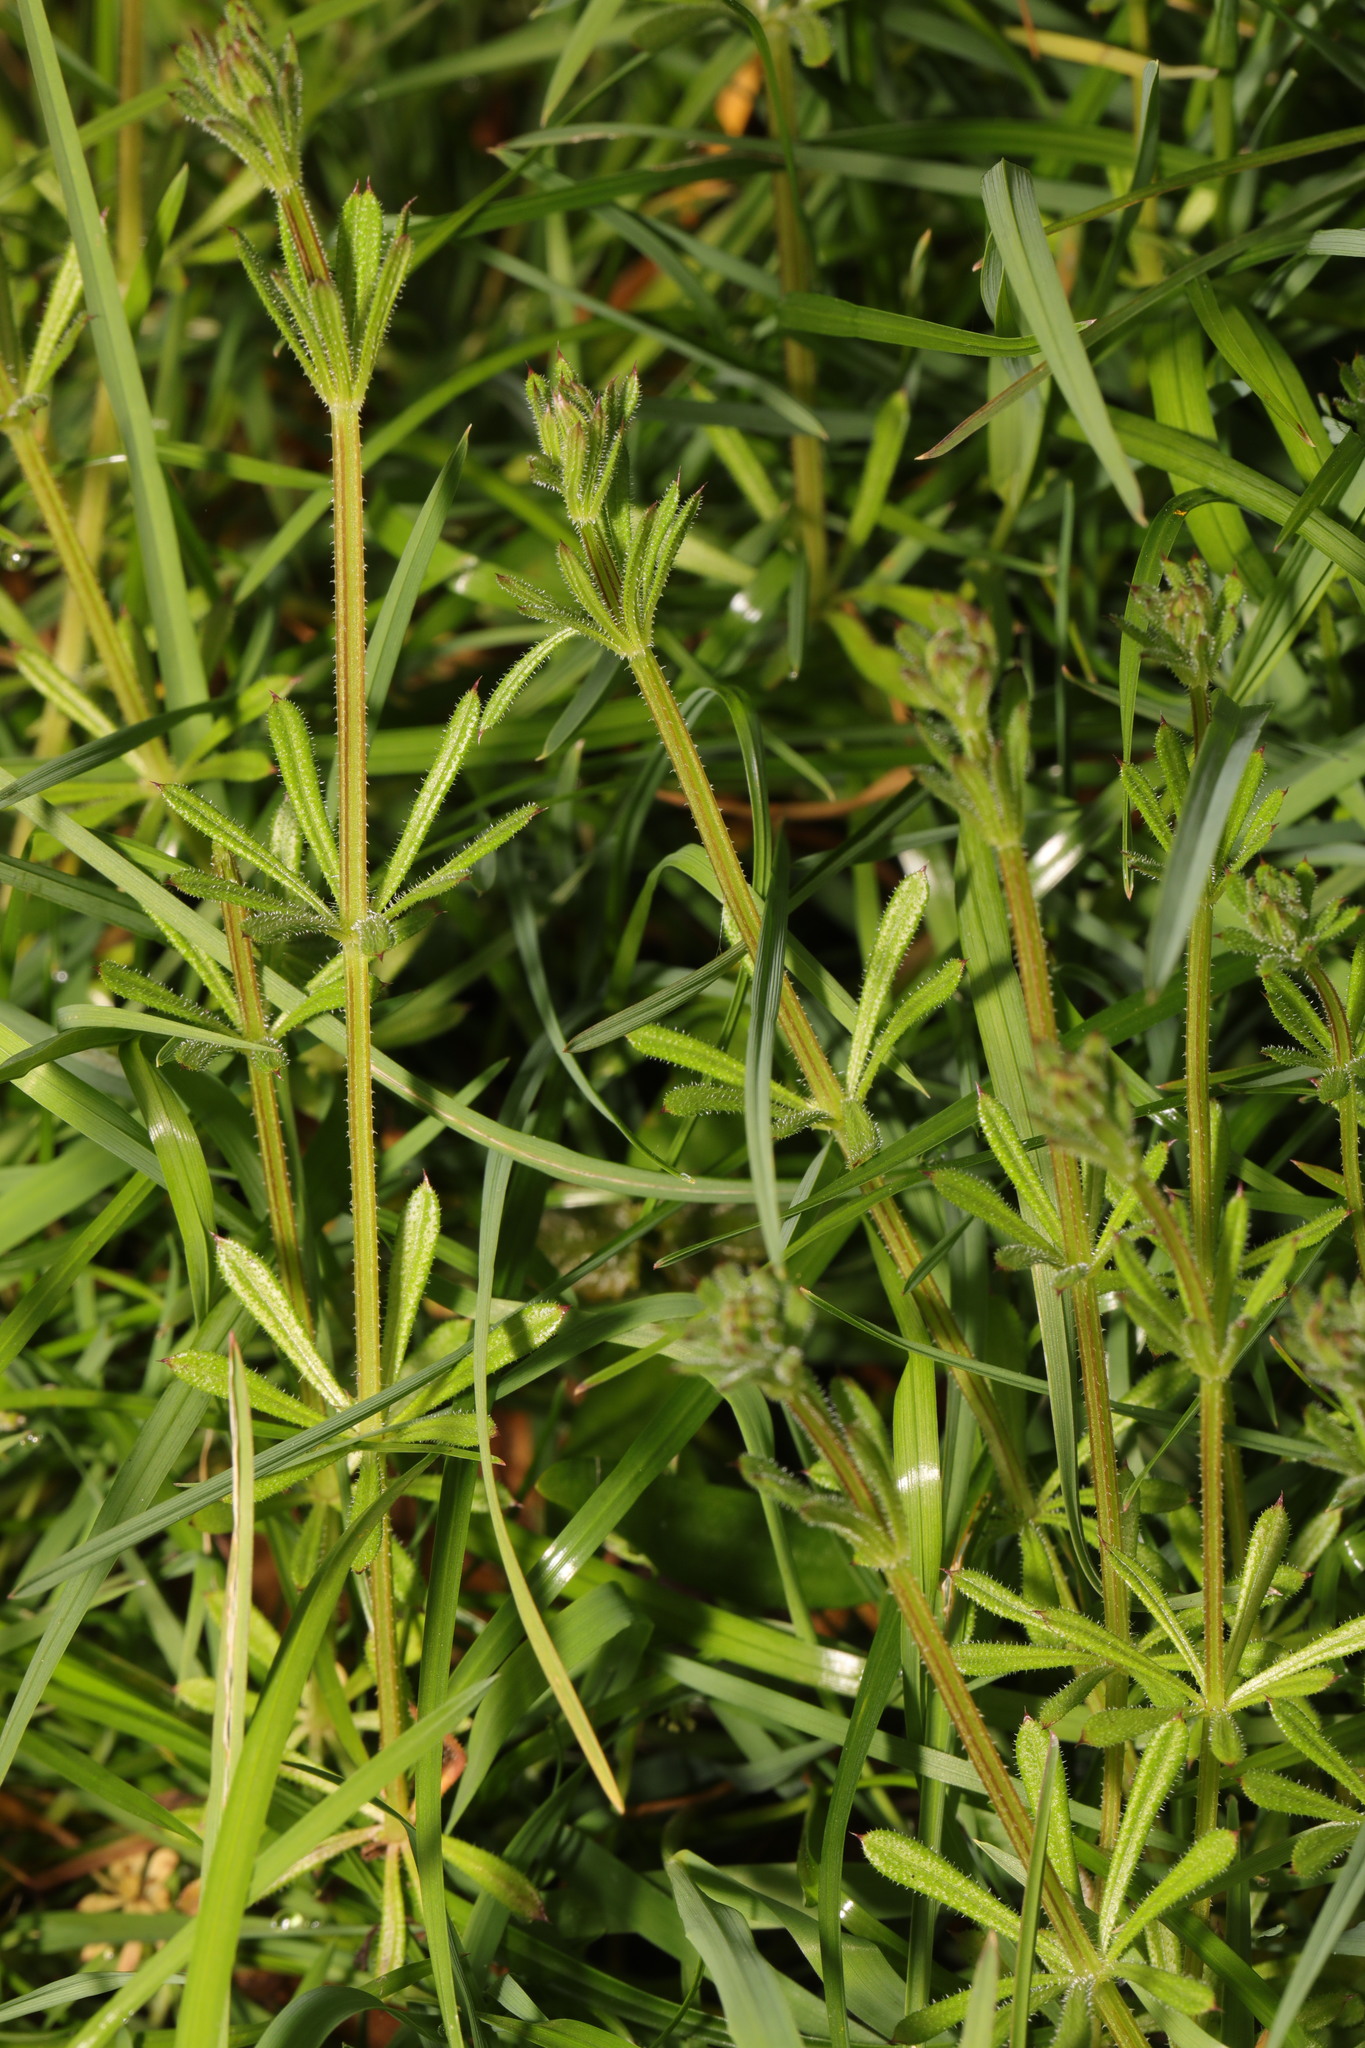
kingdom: Plantae
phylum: Tracheophyta
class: Magnoliopsida
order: Gentianales
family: Rubiaceae
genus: Galium
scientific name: Galium aparine
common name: Cleavers
